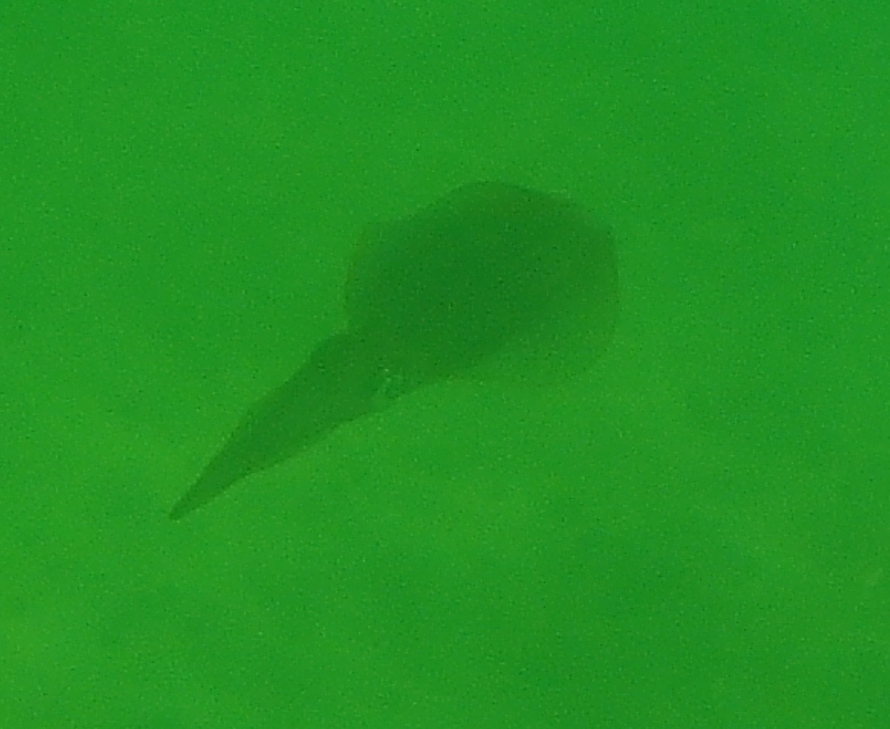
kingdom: Animalia
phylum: Mollusca
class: Cephalopoda
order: Myopsida
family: Loliginidae
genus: Sepioteuthis
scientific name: Sepioteuthis australis
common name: Southern reef squid
